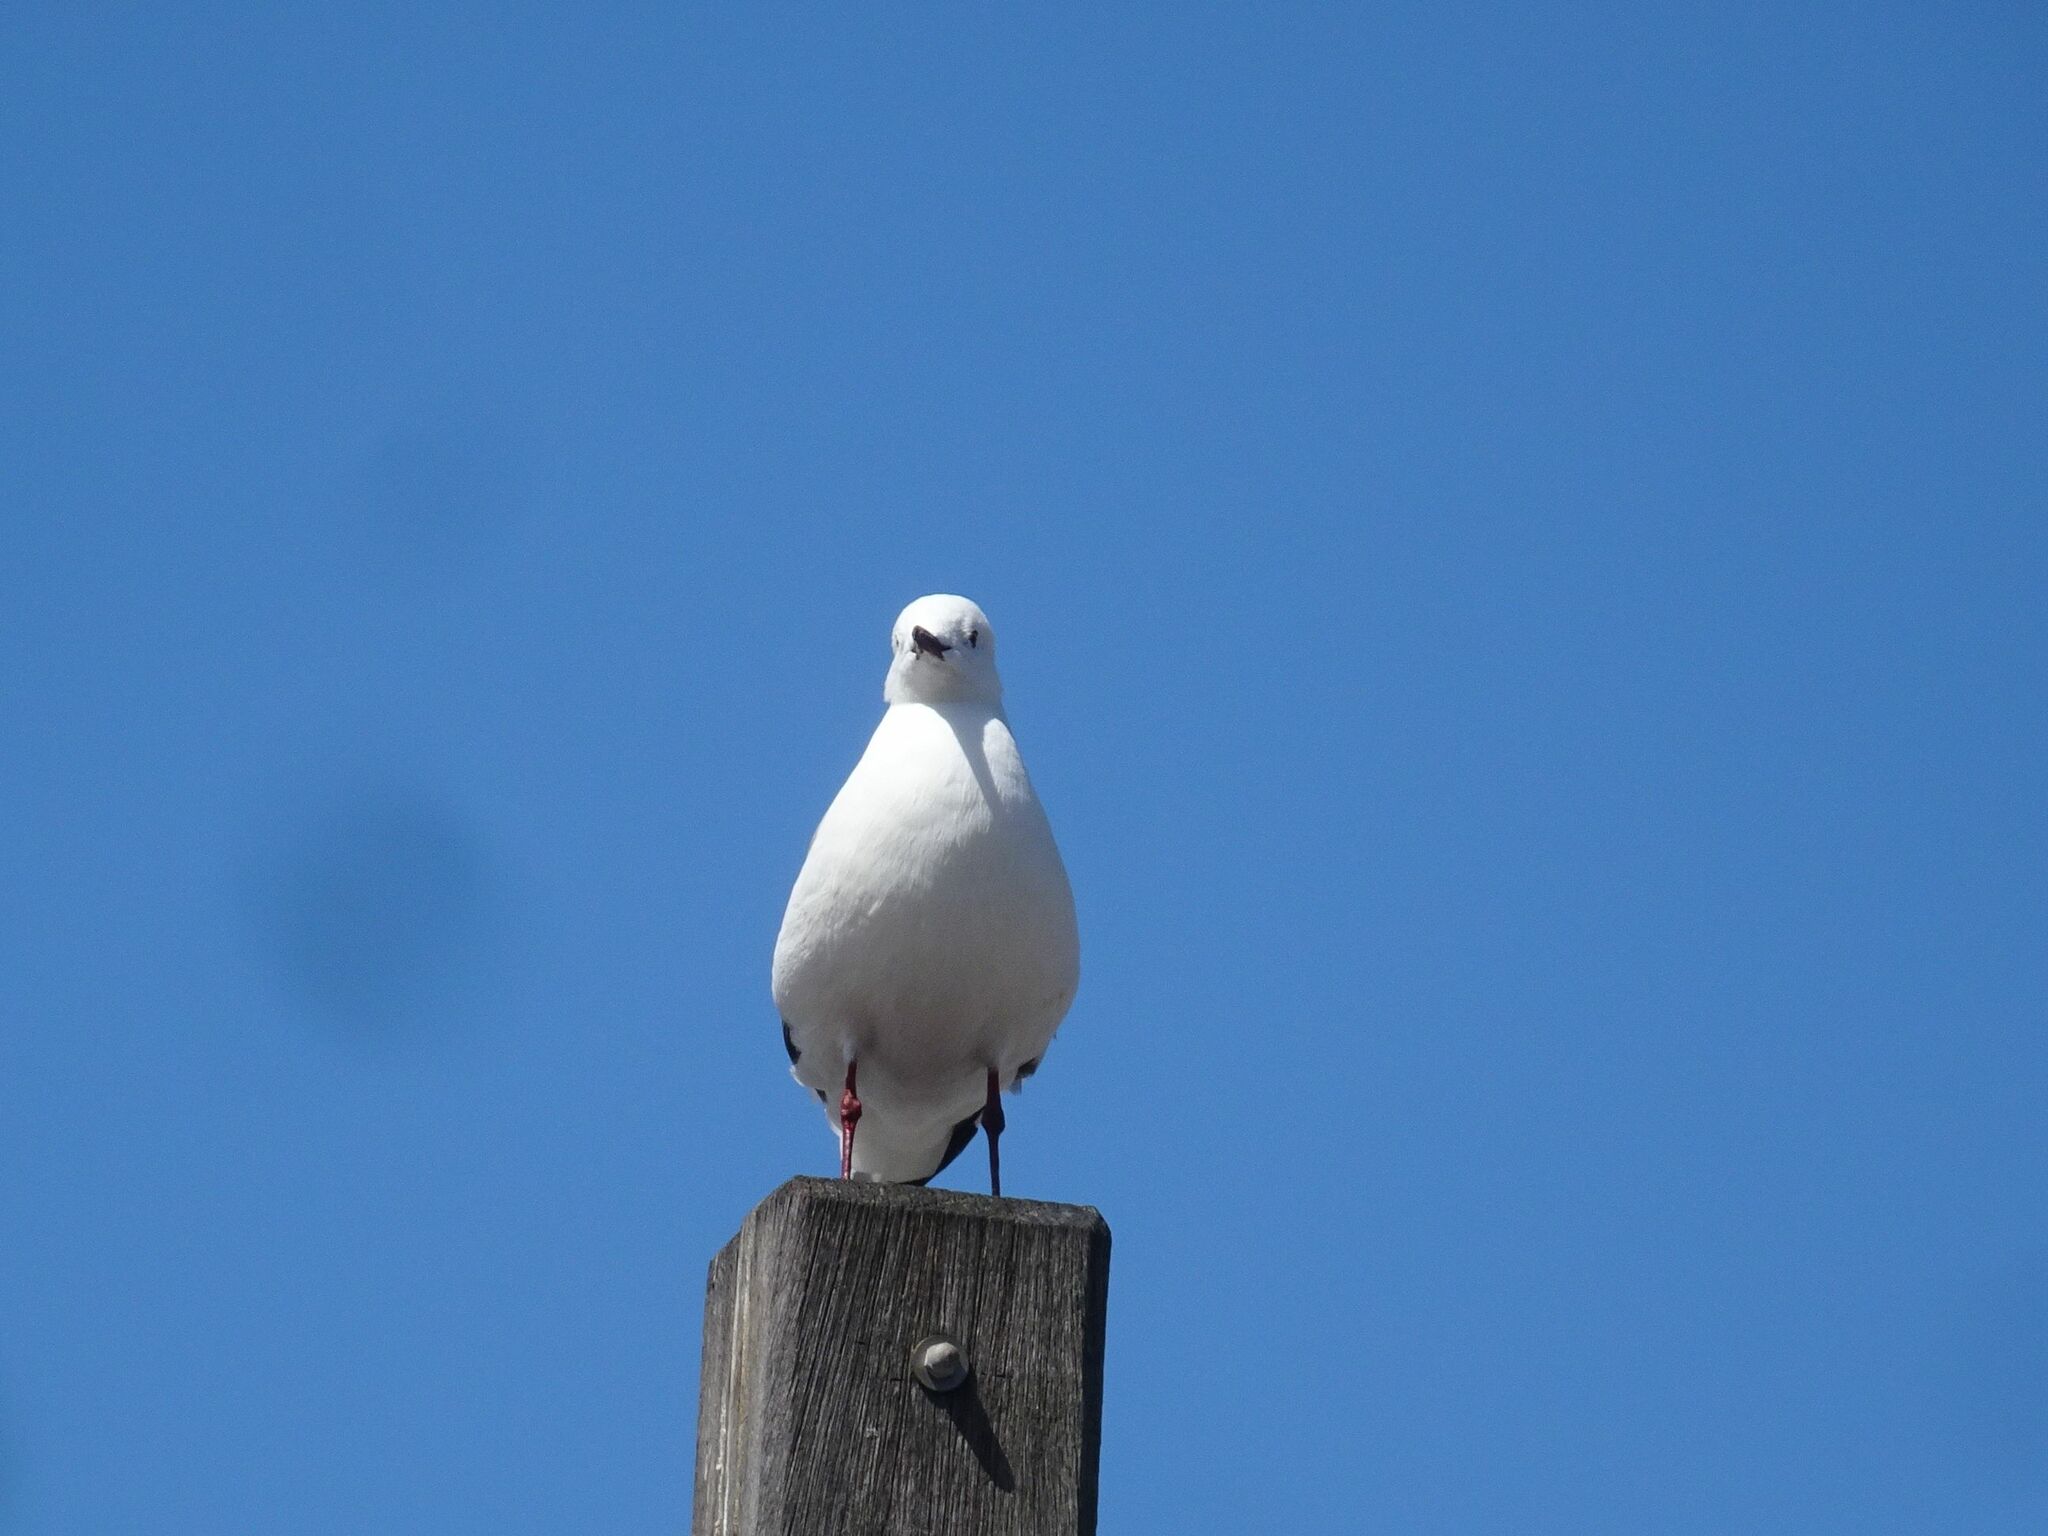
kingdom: Animalia
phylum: Chordata
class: Aves
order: Charadriiformes
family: Laridae
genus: Chroicocephalus
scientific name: Chroicocephalus hartlaubii
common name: Hartlaub's gull
